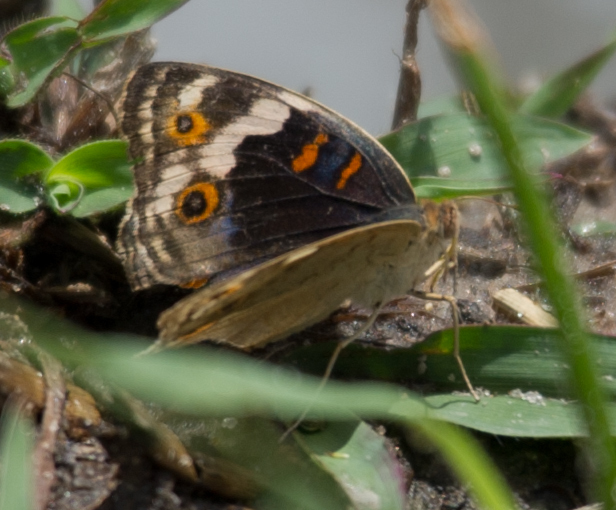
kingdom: Animalia
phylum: Arthropoda
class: Insecta
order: Lepidoptera
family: Nymphalidae
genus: Junonia
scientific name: Junonia orithya
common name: Blue pansy
